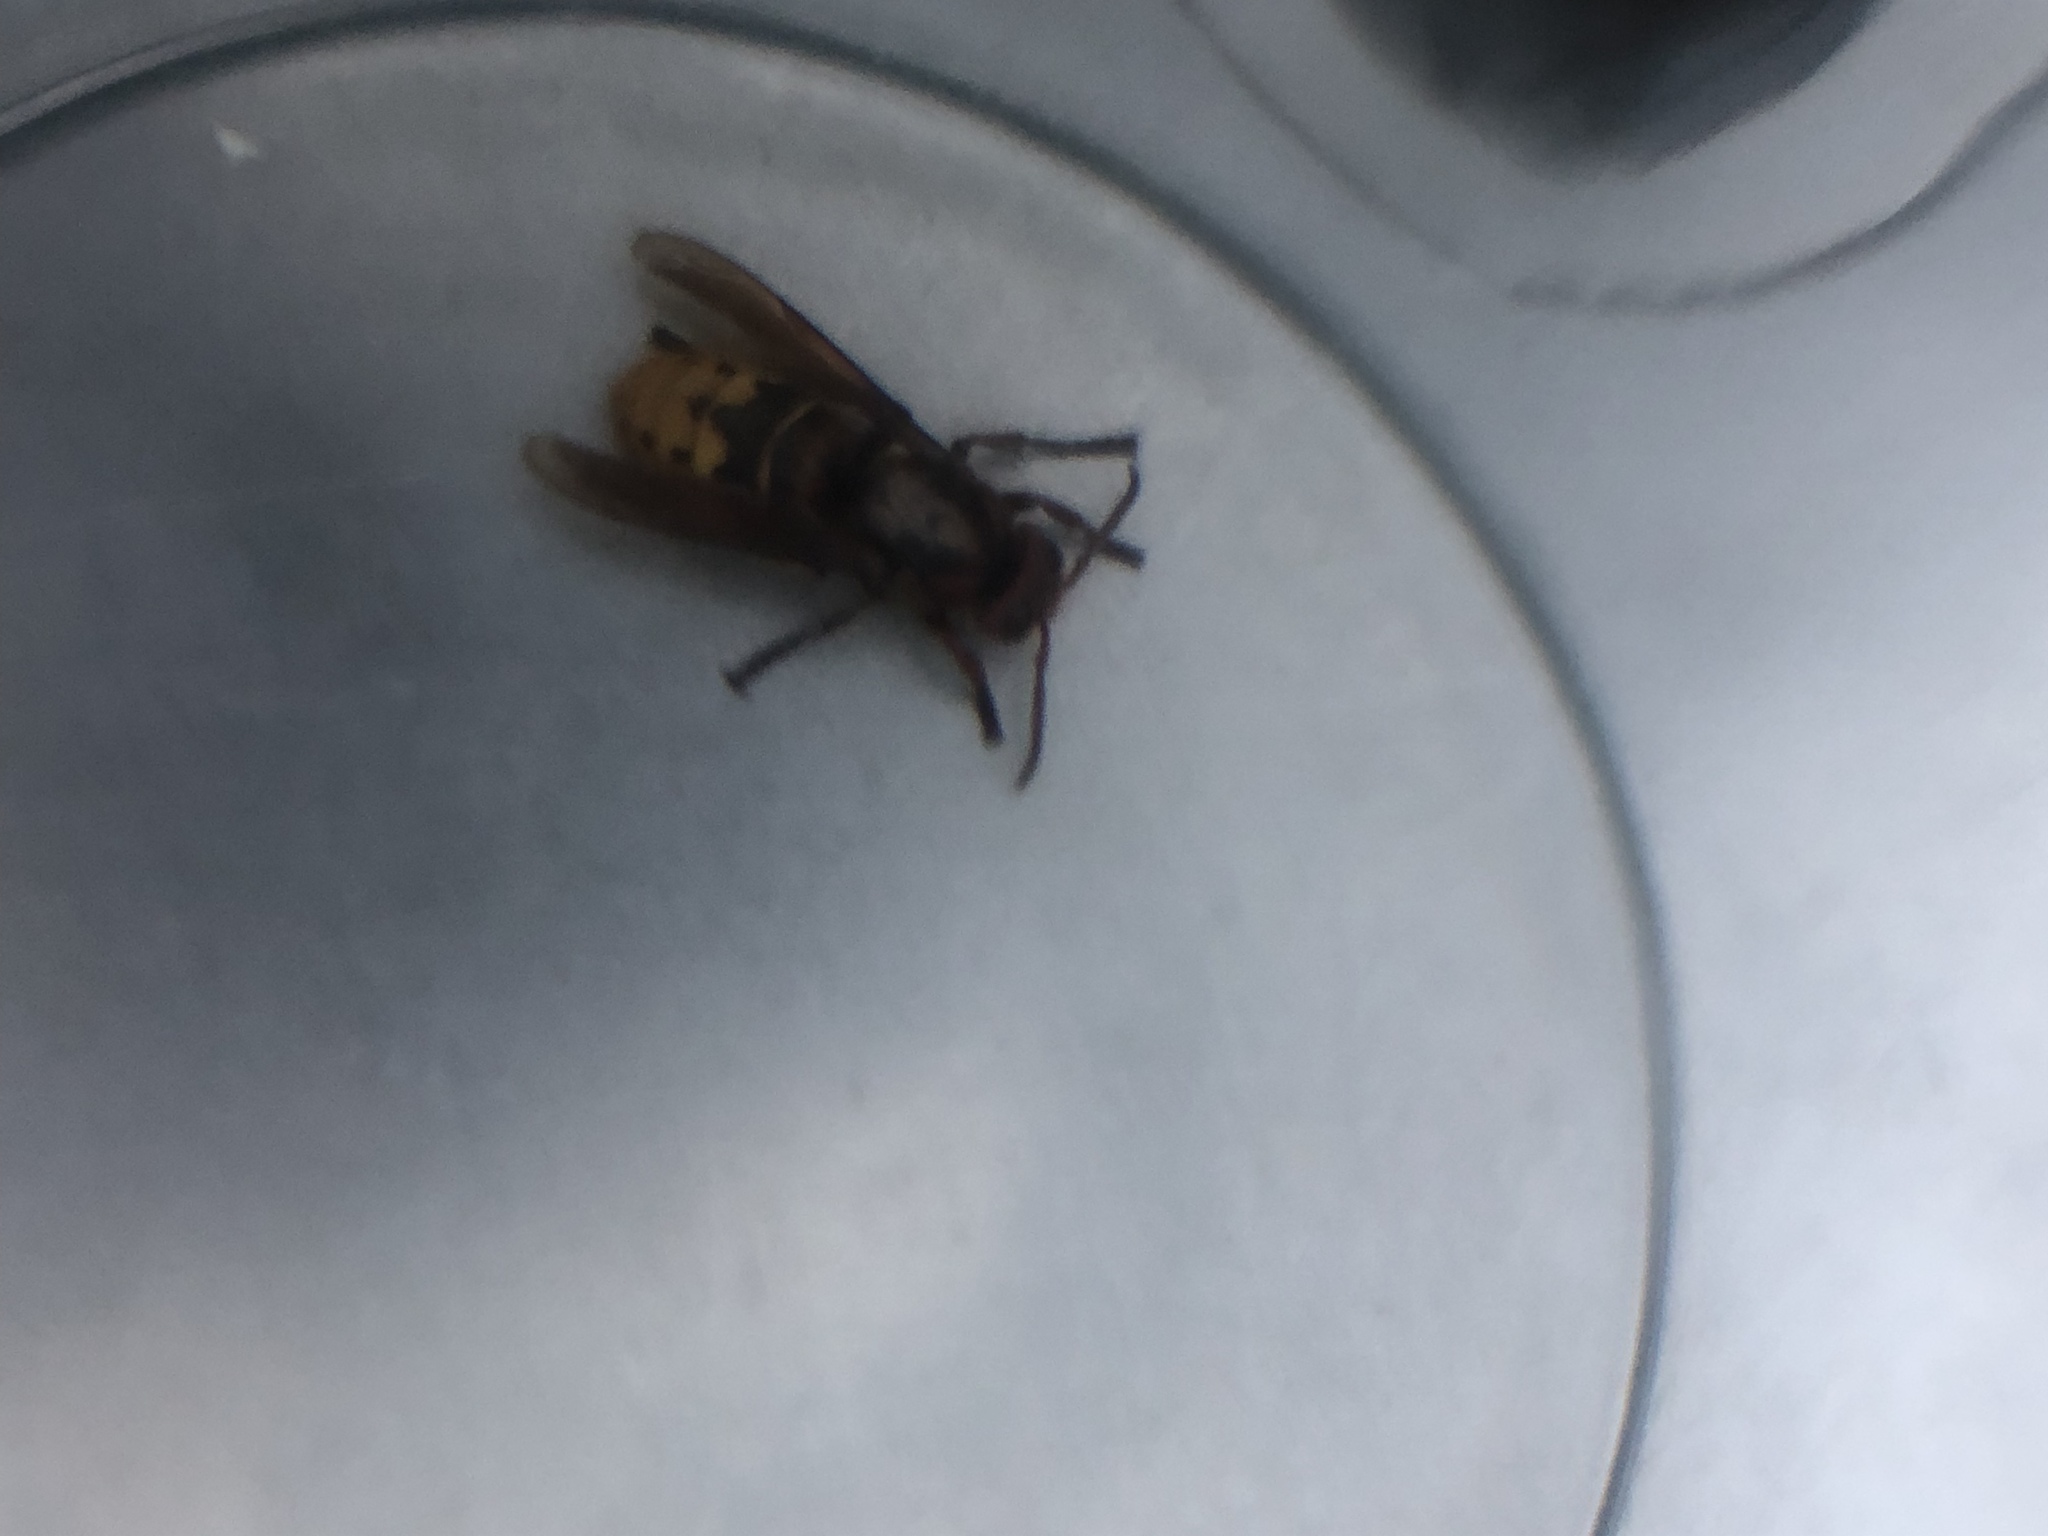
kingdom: Animalia
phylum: Arthropoda
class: Insecta
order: Hymenoptera
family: Vespidae
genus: Vespa
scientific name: Vespa crabro
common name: Hornet
